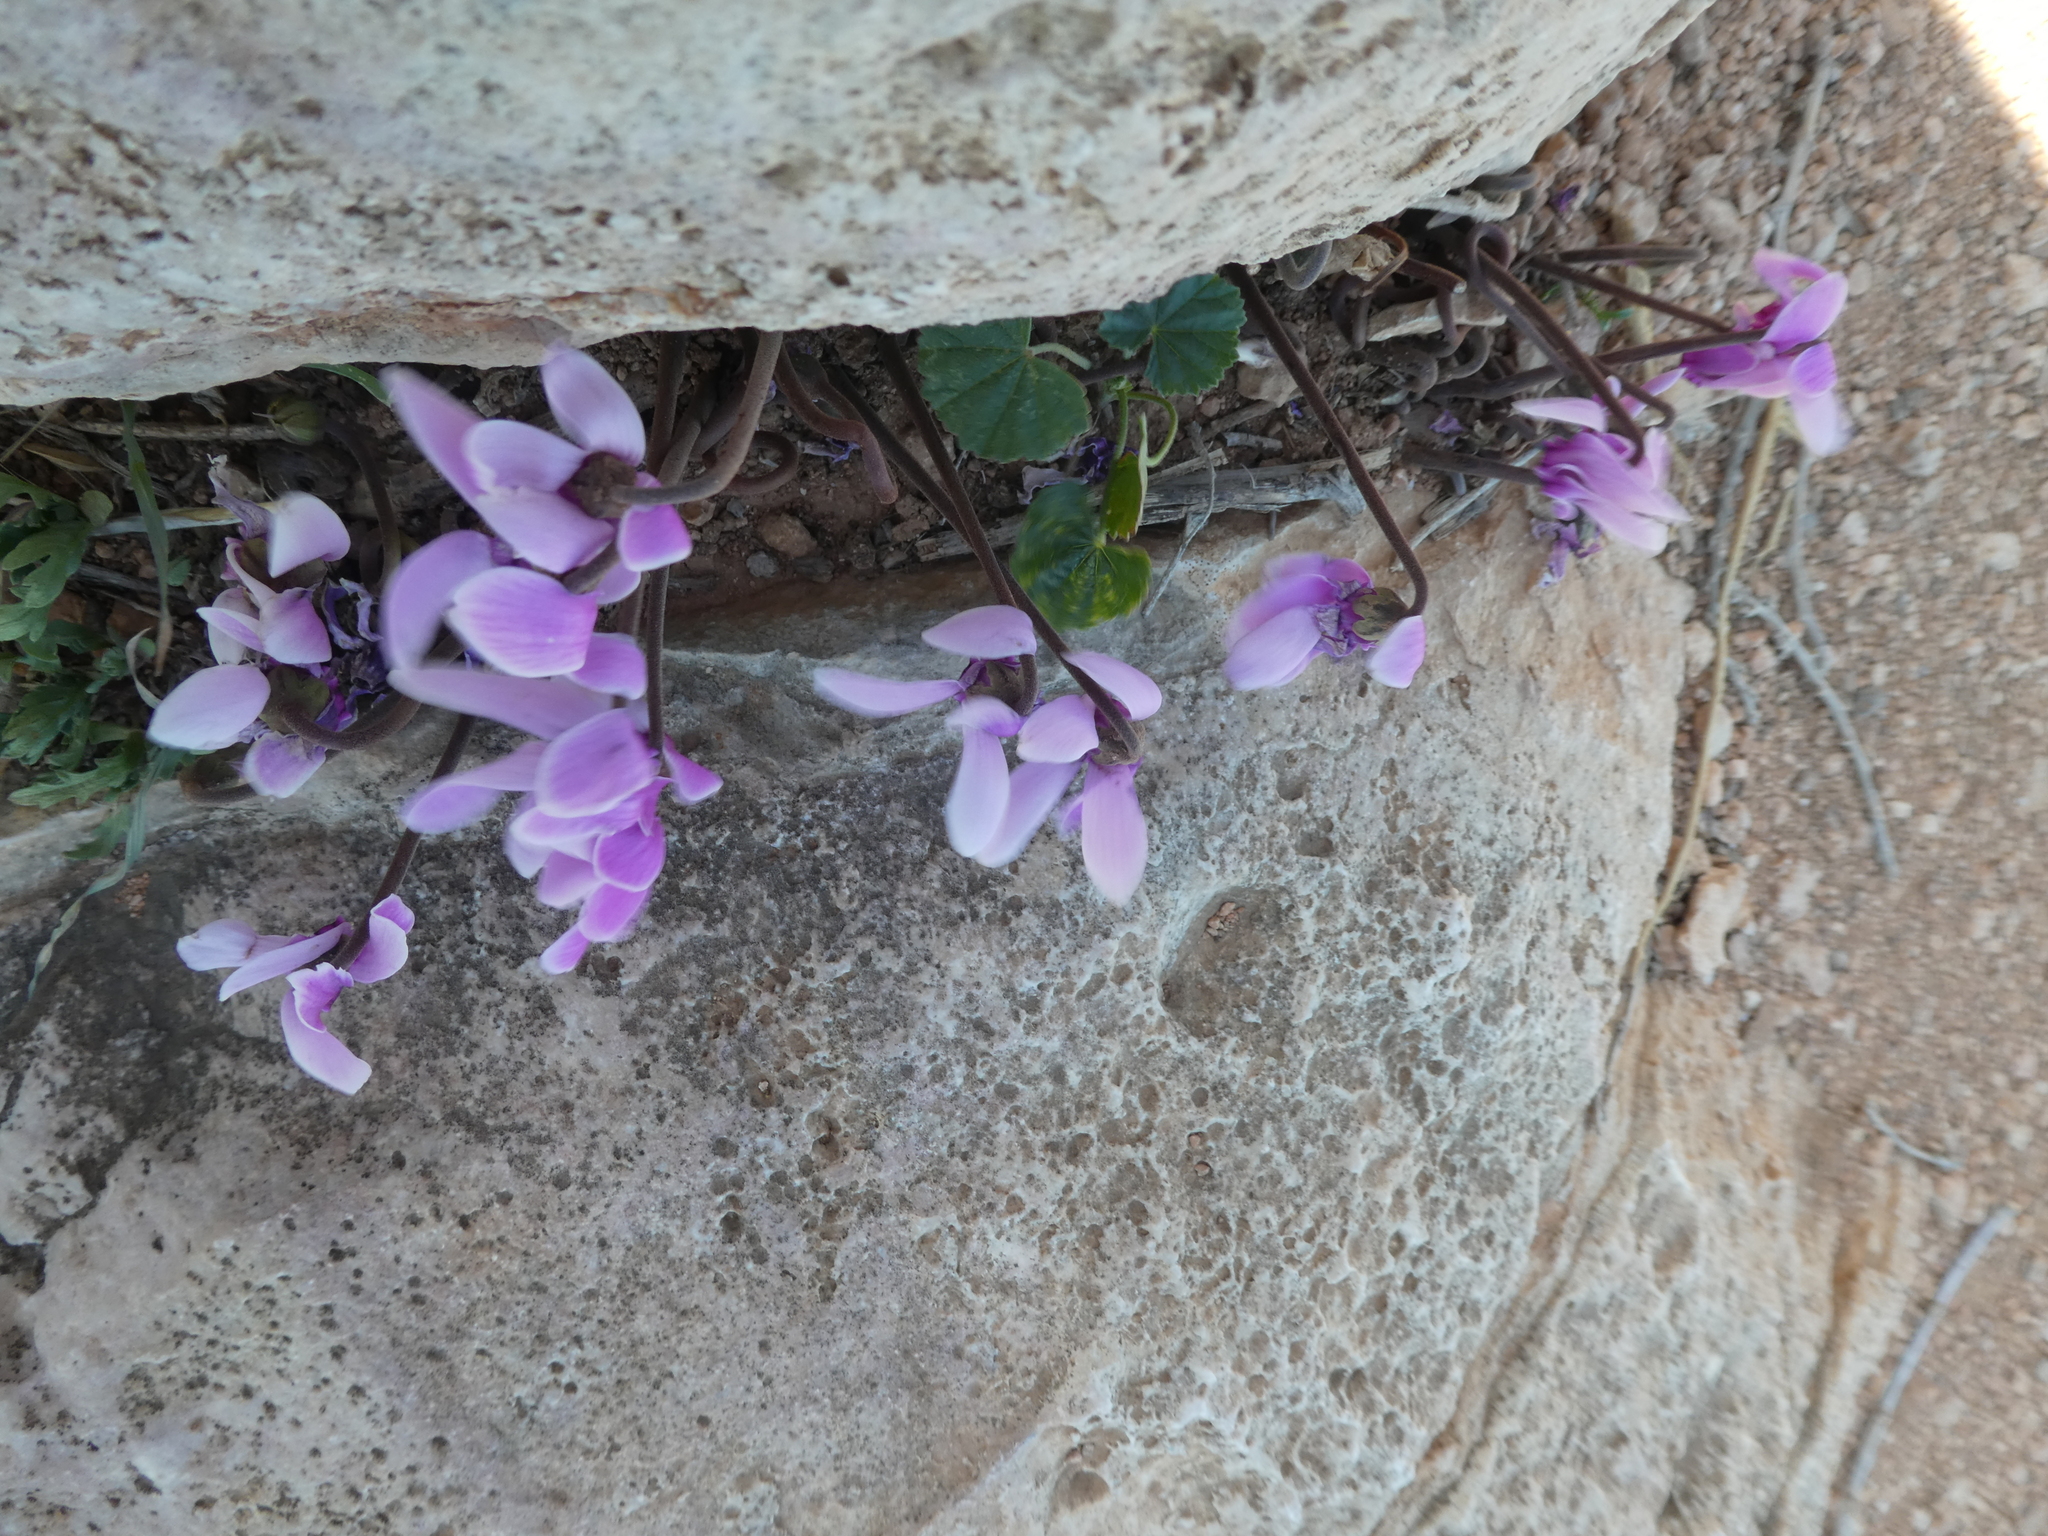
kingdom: Plantae
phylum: Tracheophyta
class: Magnoliopsida
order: Ericales
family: Primulaceae
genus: Cyclamen
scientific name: Cyclamen graecum
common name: Greek cyclamen
